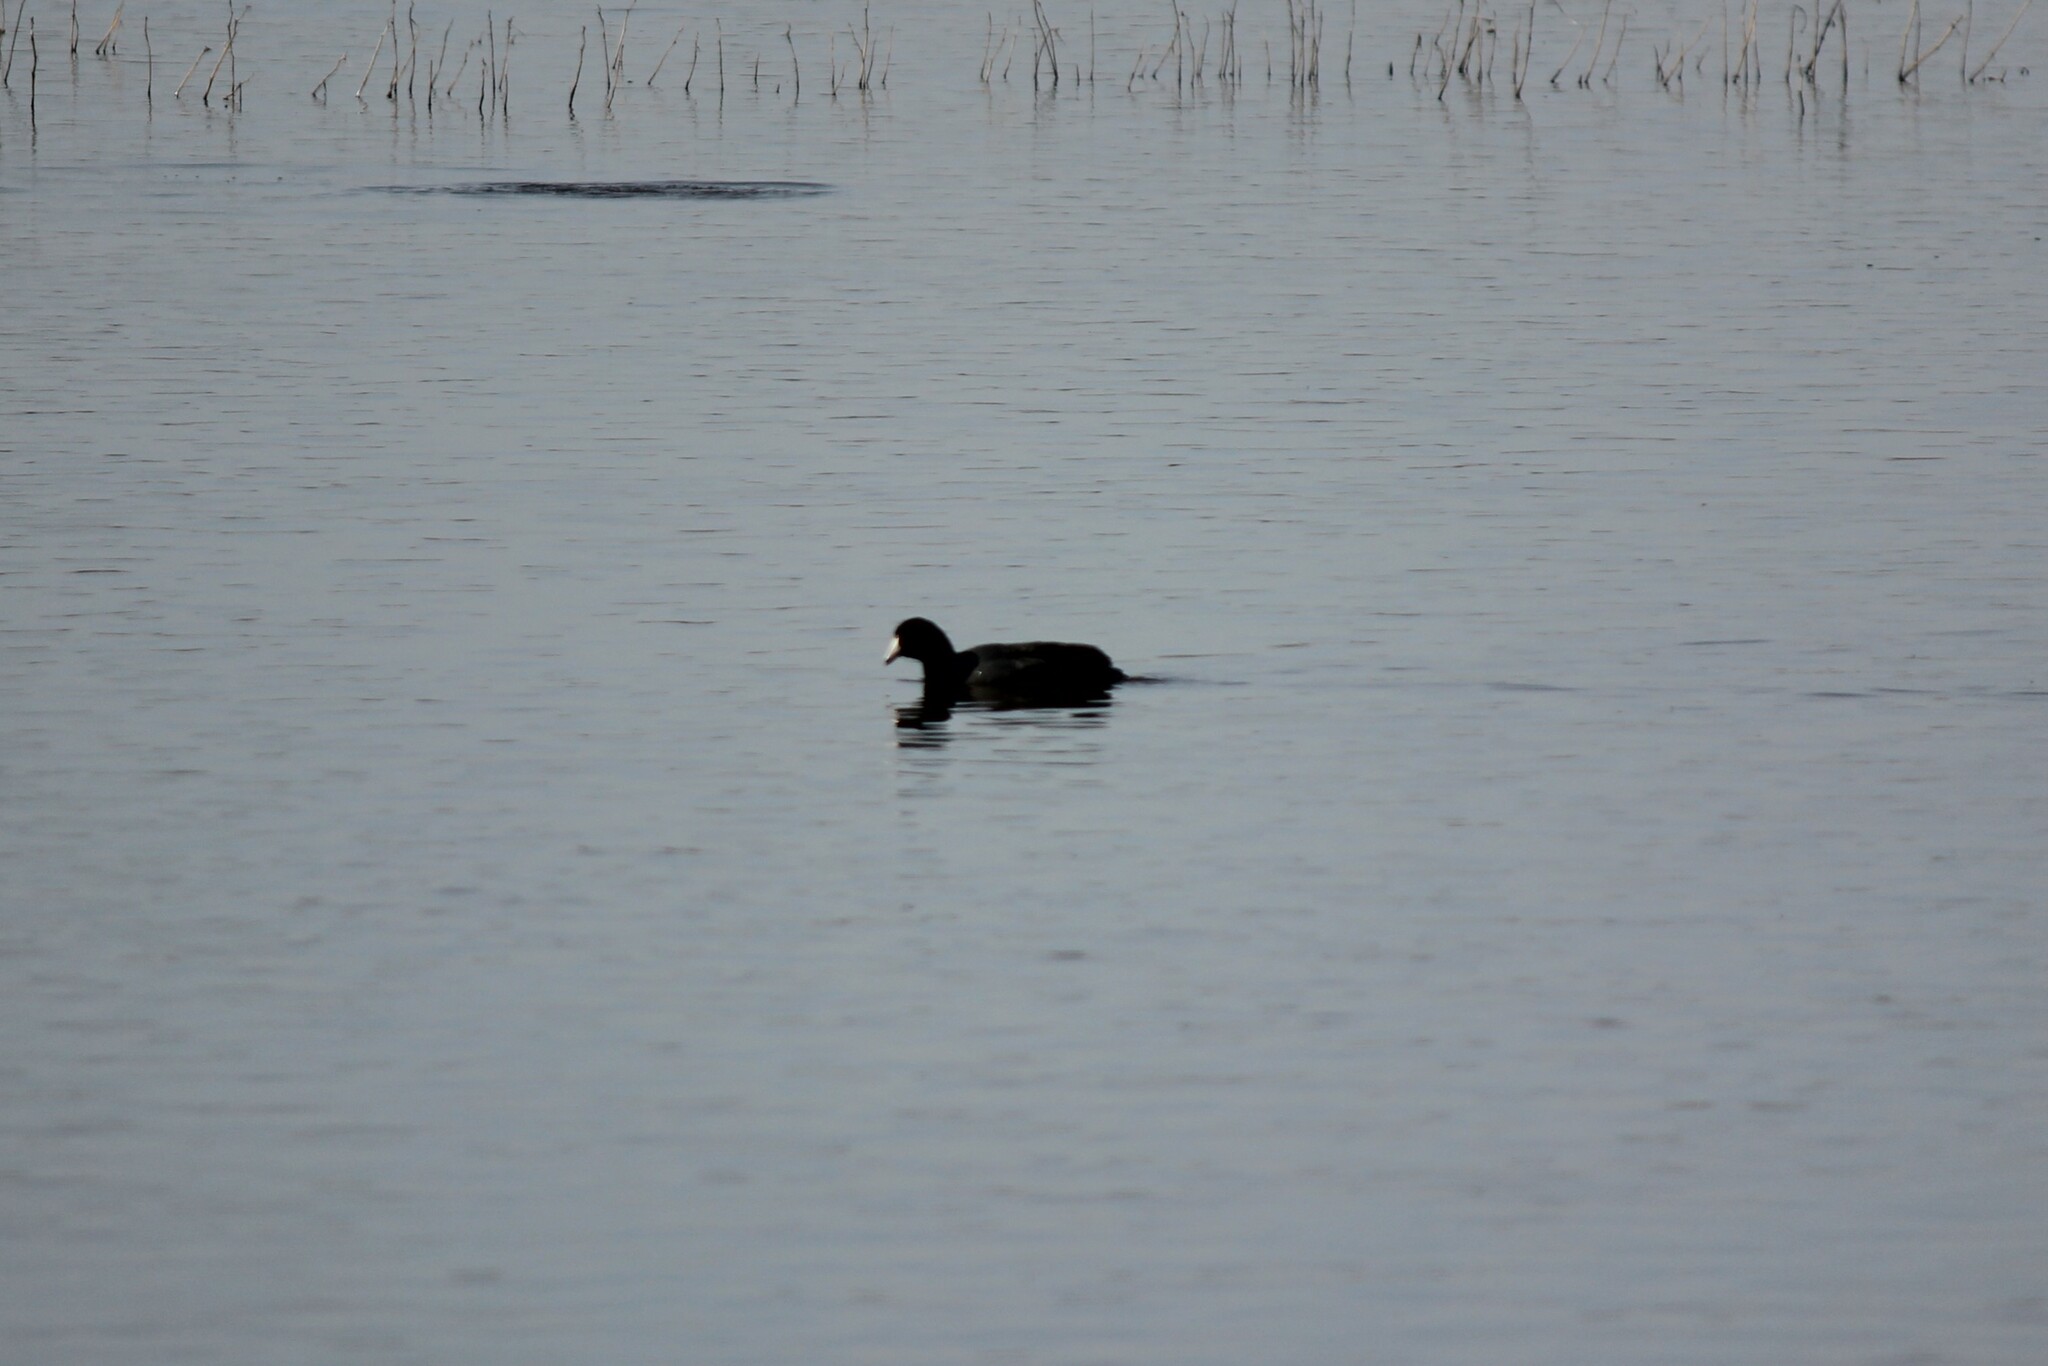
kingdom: Animalia
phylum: Chordata
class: Aves
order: Gruiformes
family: Rallidae
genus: Fulica
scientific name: Fulica americana
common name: American coot
